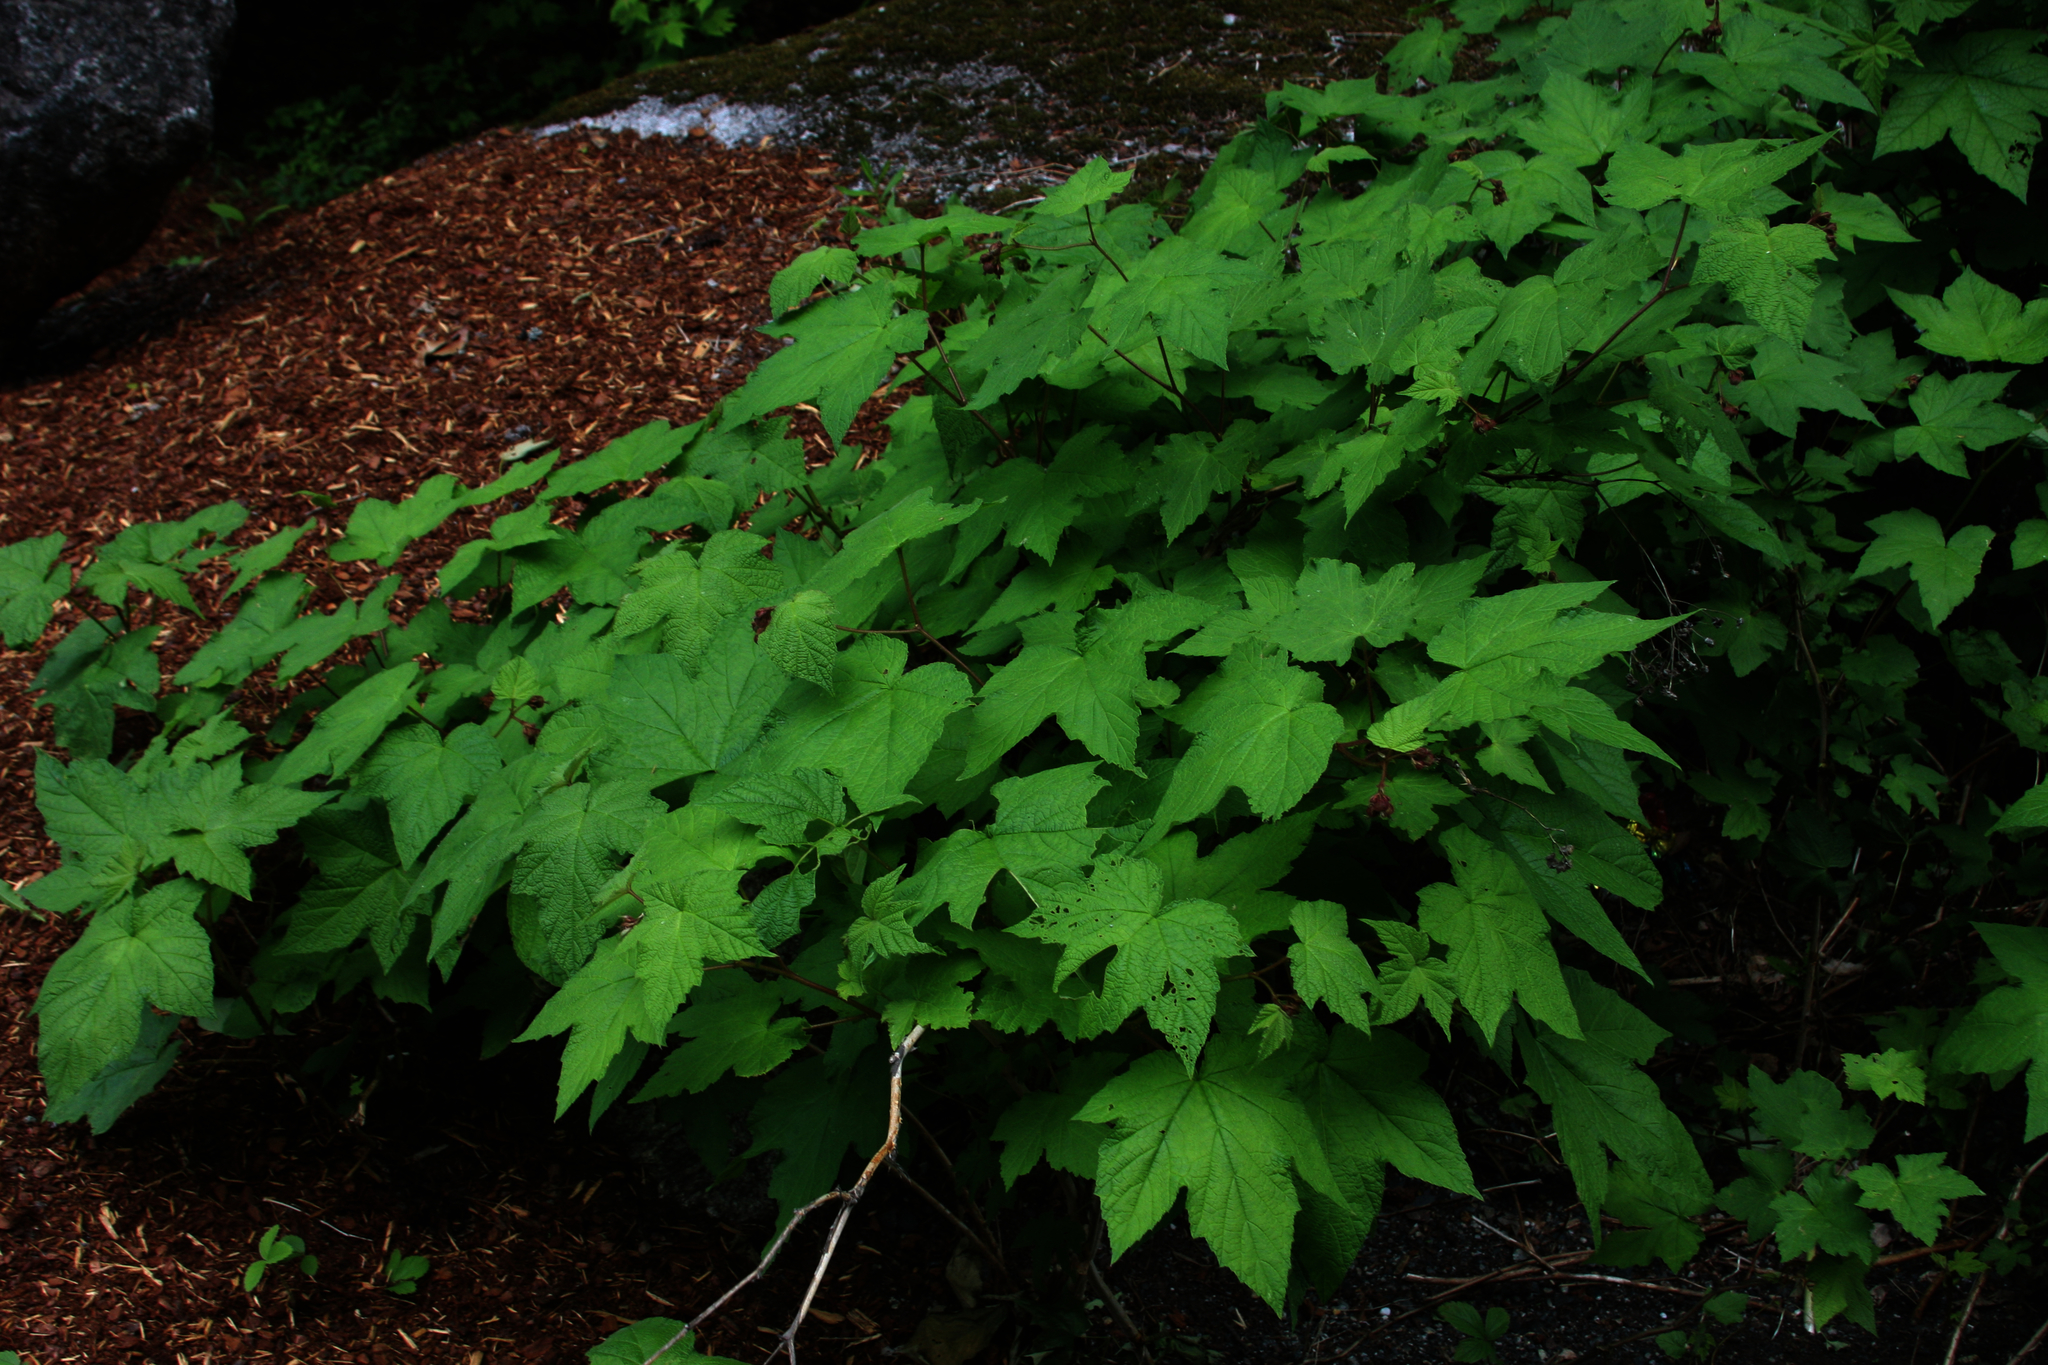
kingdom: Plantae
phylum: Tracheophyta
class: Magnoliopsida
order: Rosales
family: Rosaceae
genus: Rubus
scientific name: Rubus odoratus
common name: Purple-flowered raspberry
